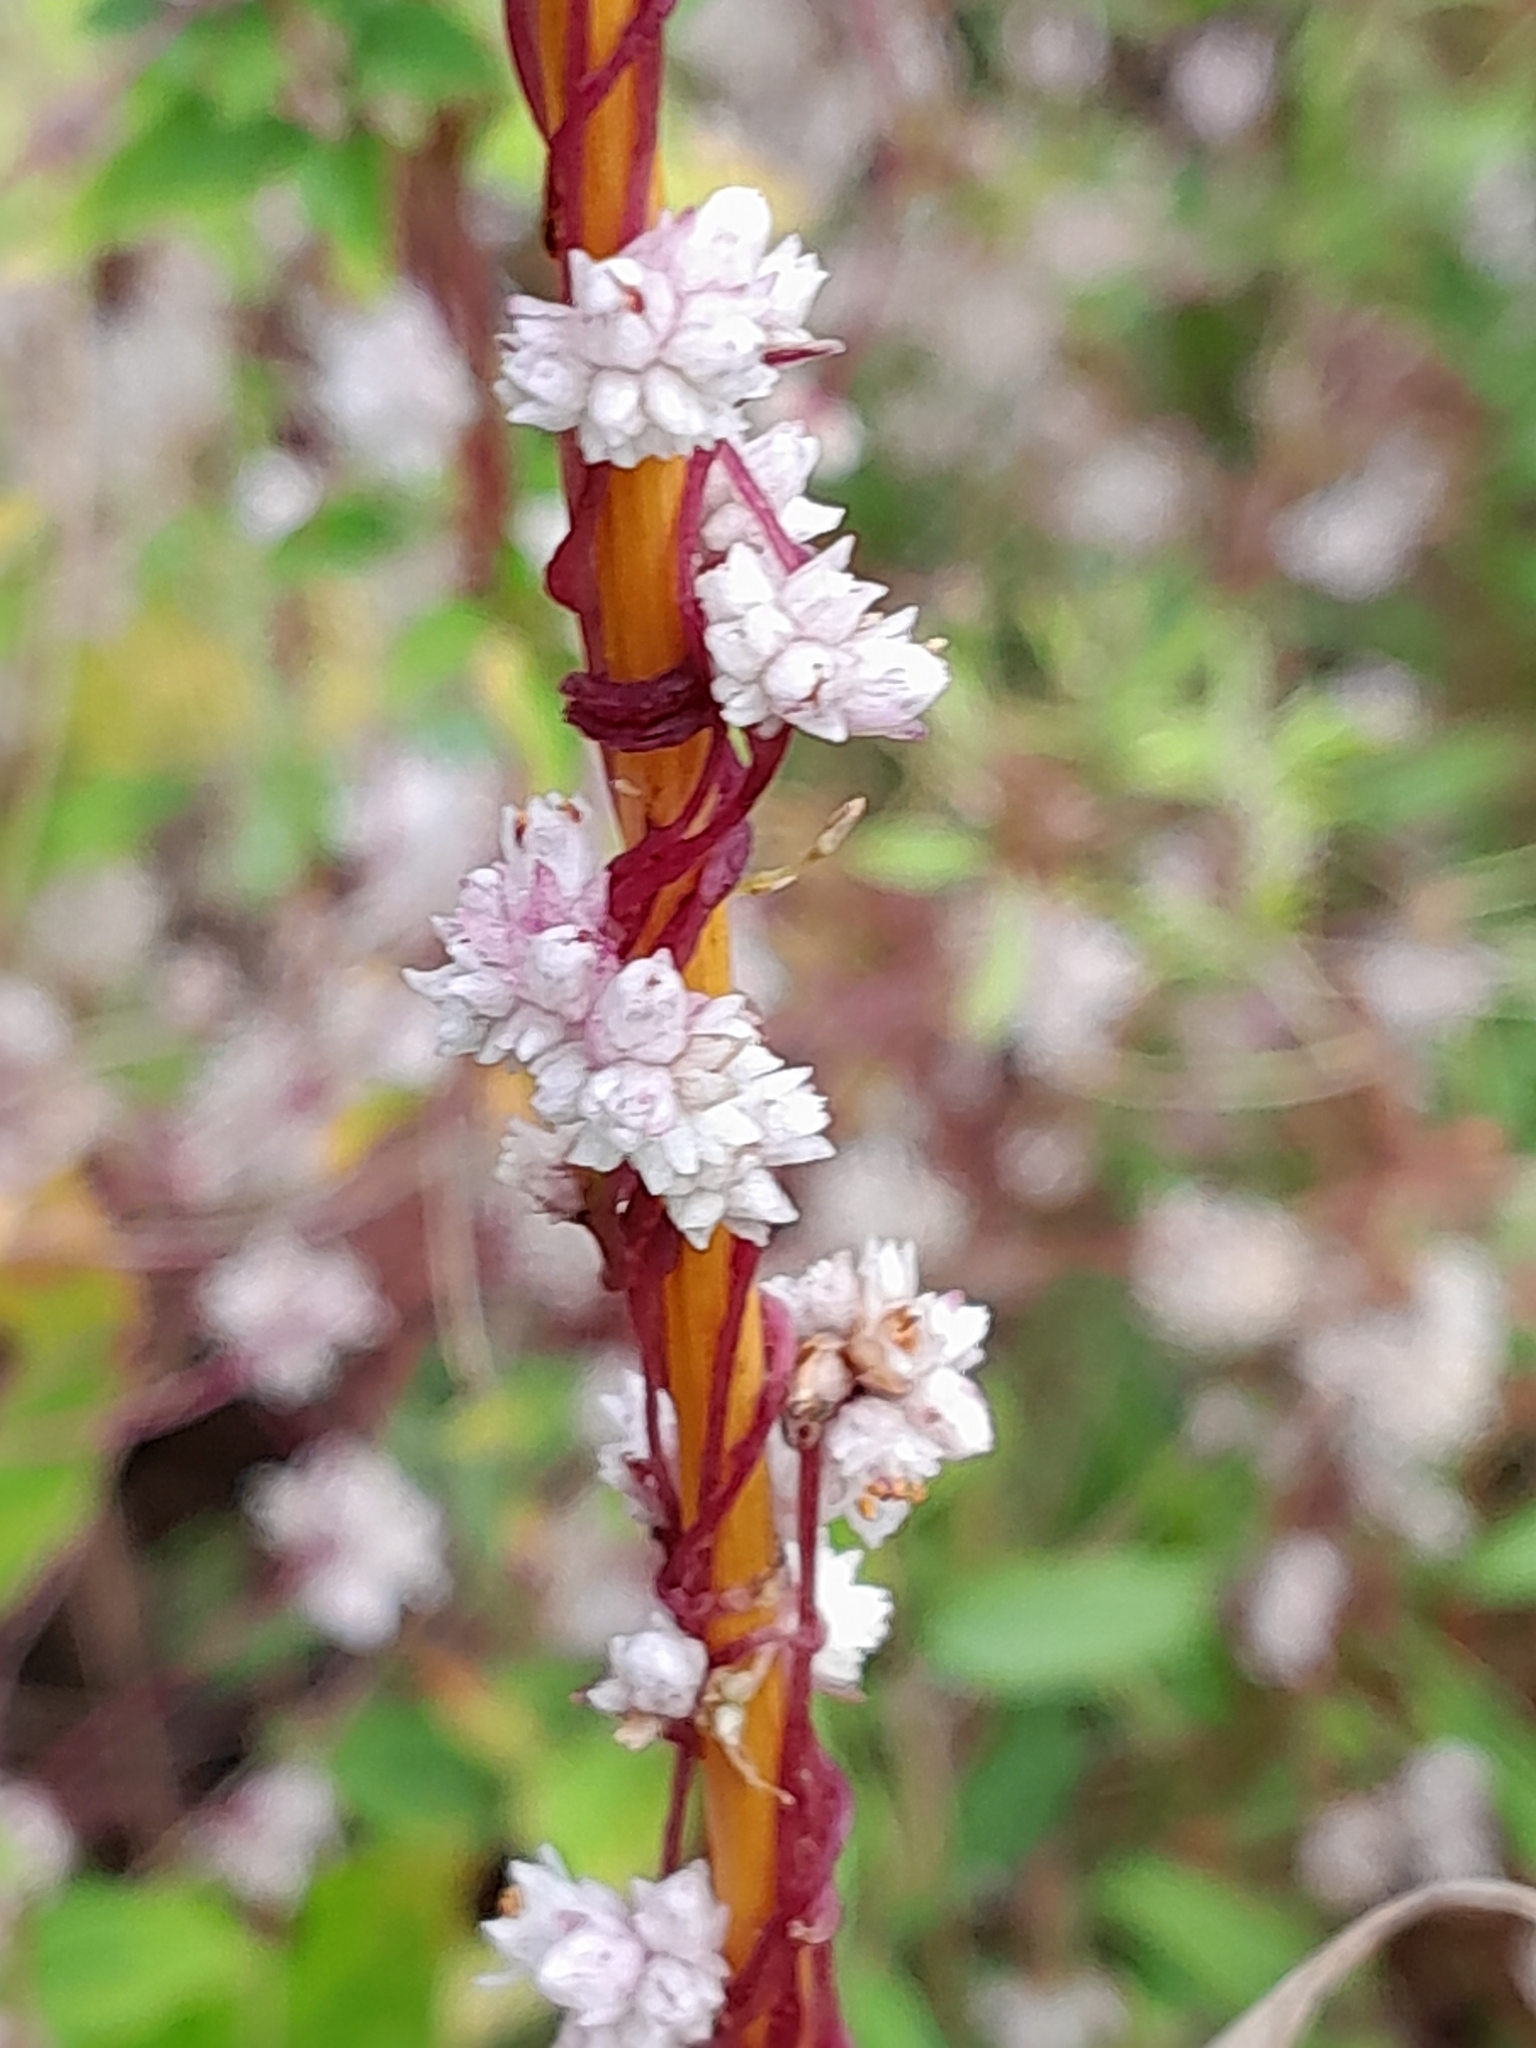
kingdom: Plantae
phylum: Tracheophyta
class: Magnoliopsida
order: Solanales
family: Convolvulaceae
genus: Cuscuta
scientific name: Cuscuta epithymum
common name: Clover dodder
